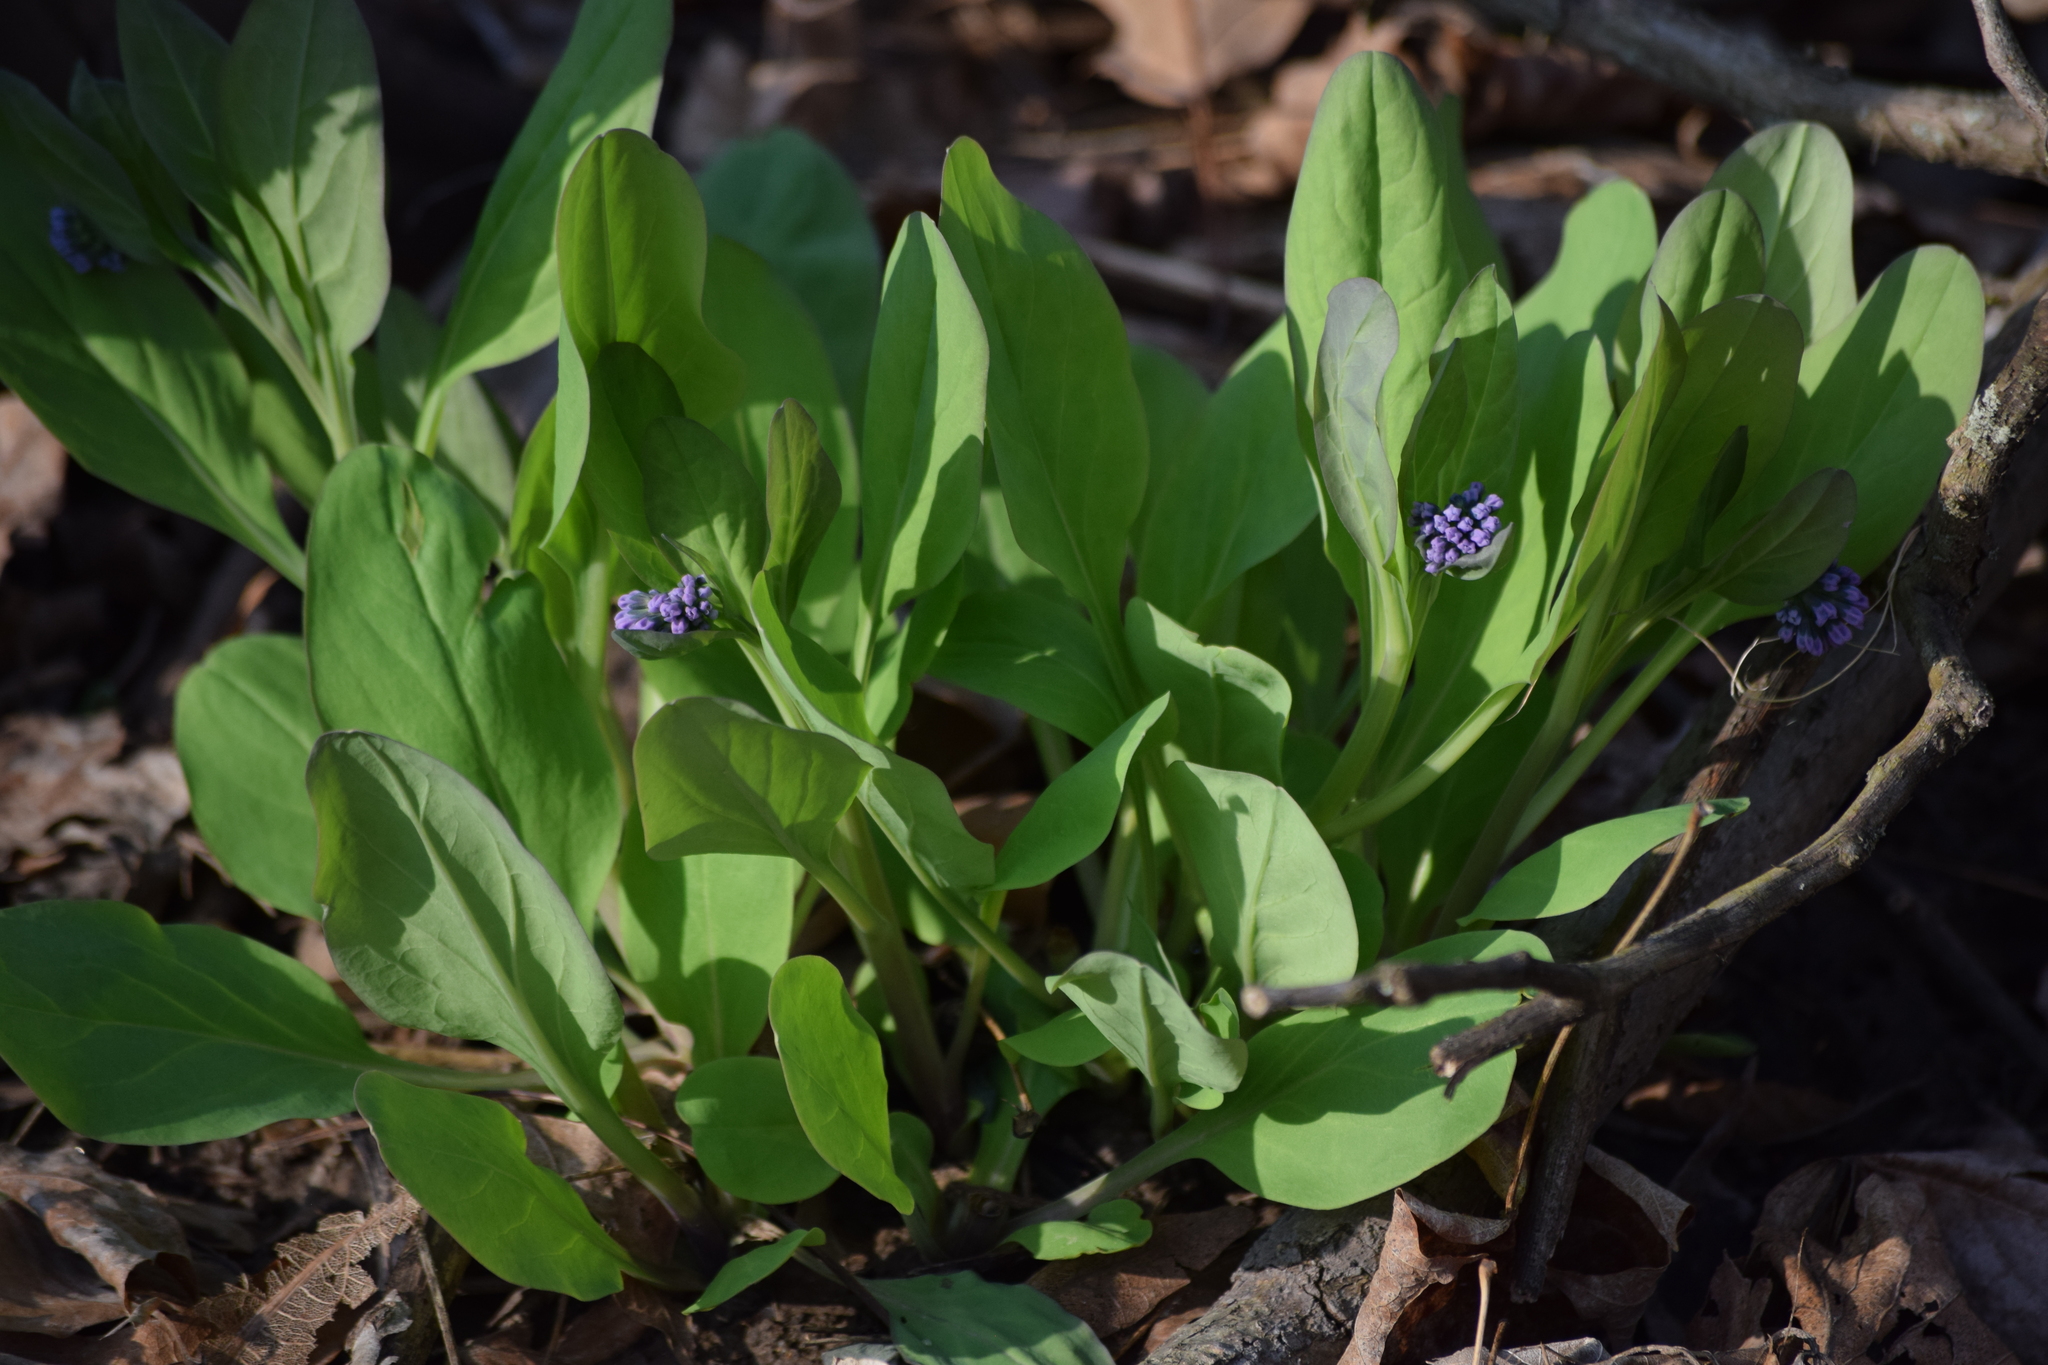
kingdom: Plantae
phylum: Tracheophyta
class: Magnoliopsida
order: Boraginales
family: Boraginaceae
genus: Mertensia
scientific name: Mertensia virginica
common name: Virginia bluebells
